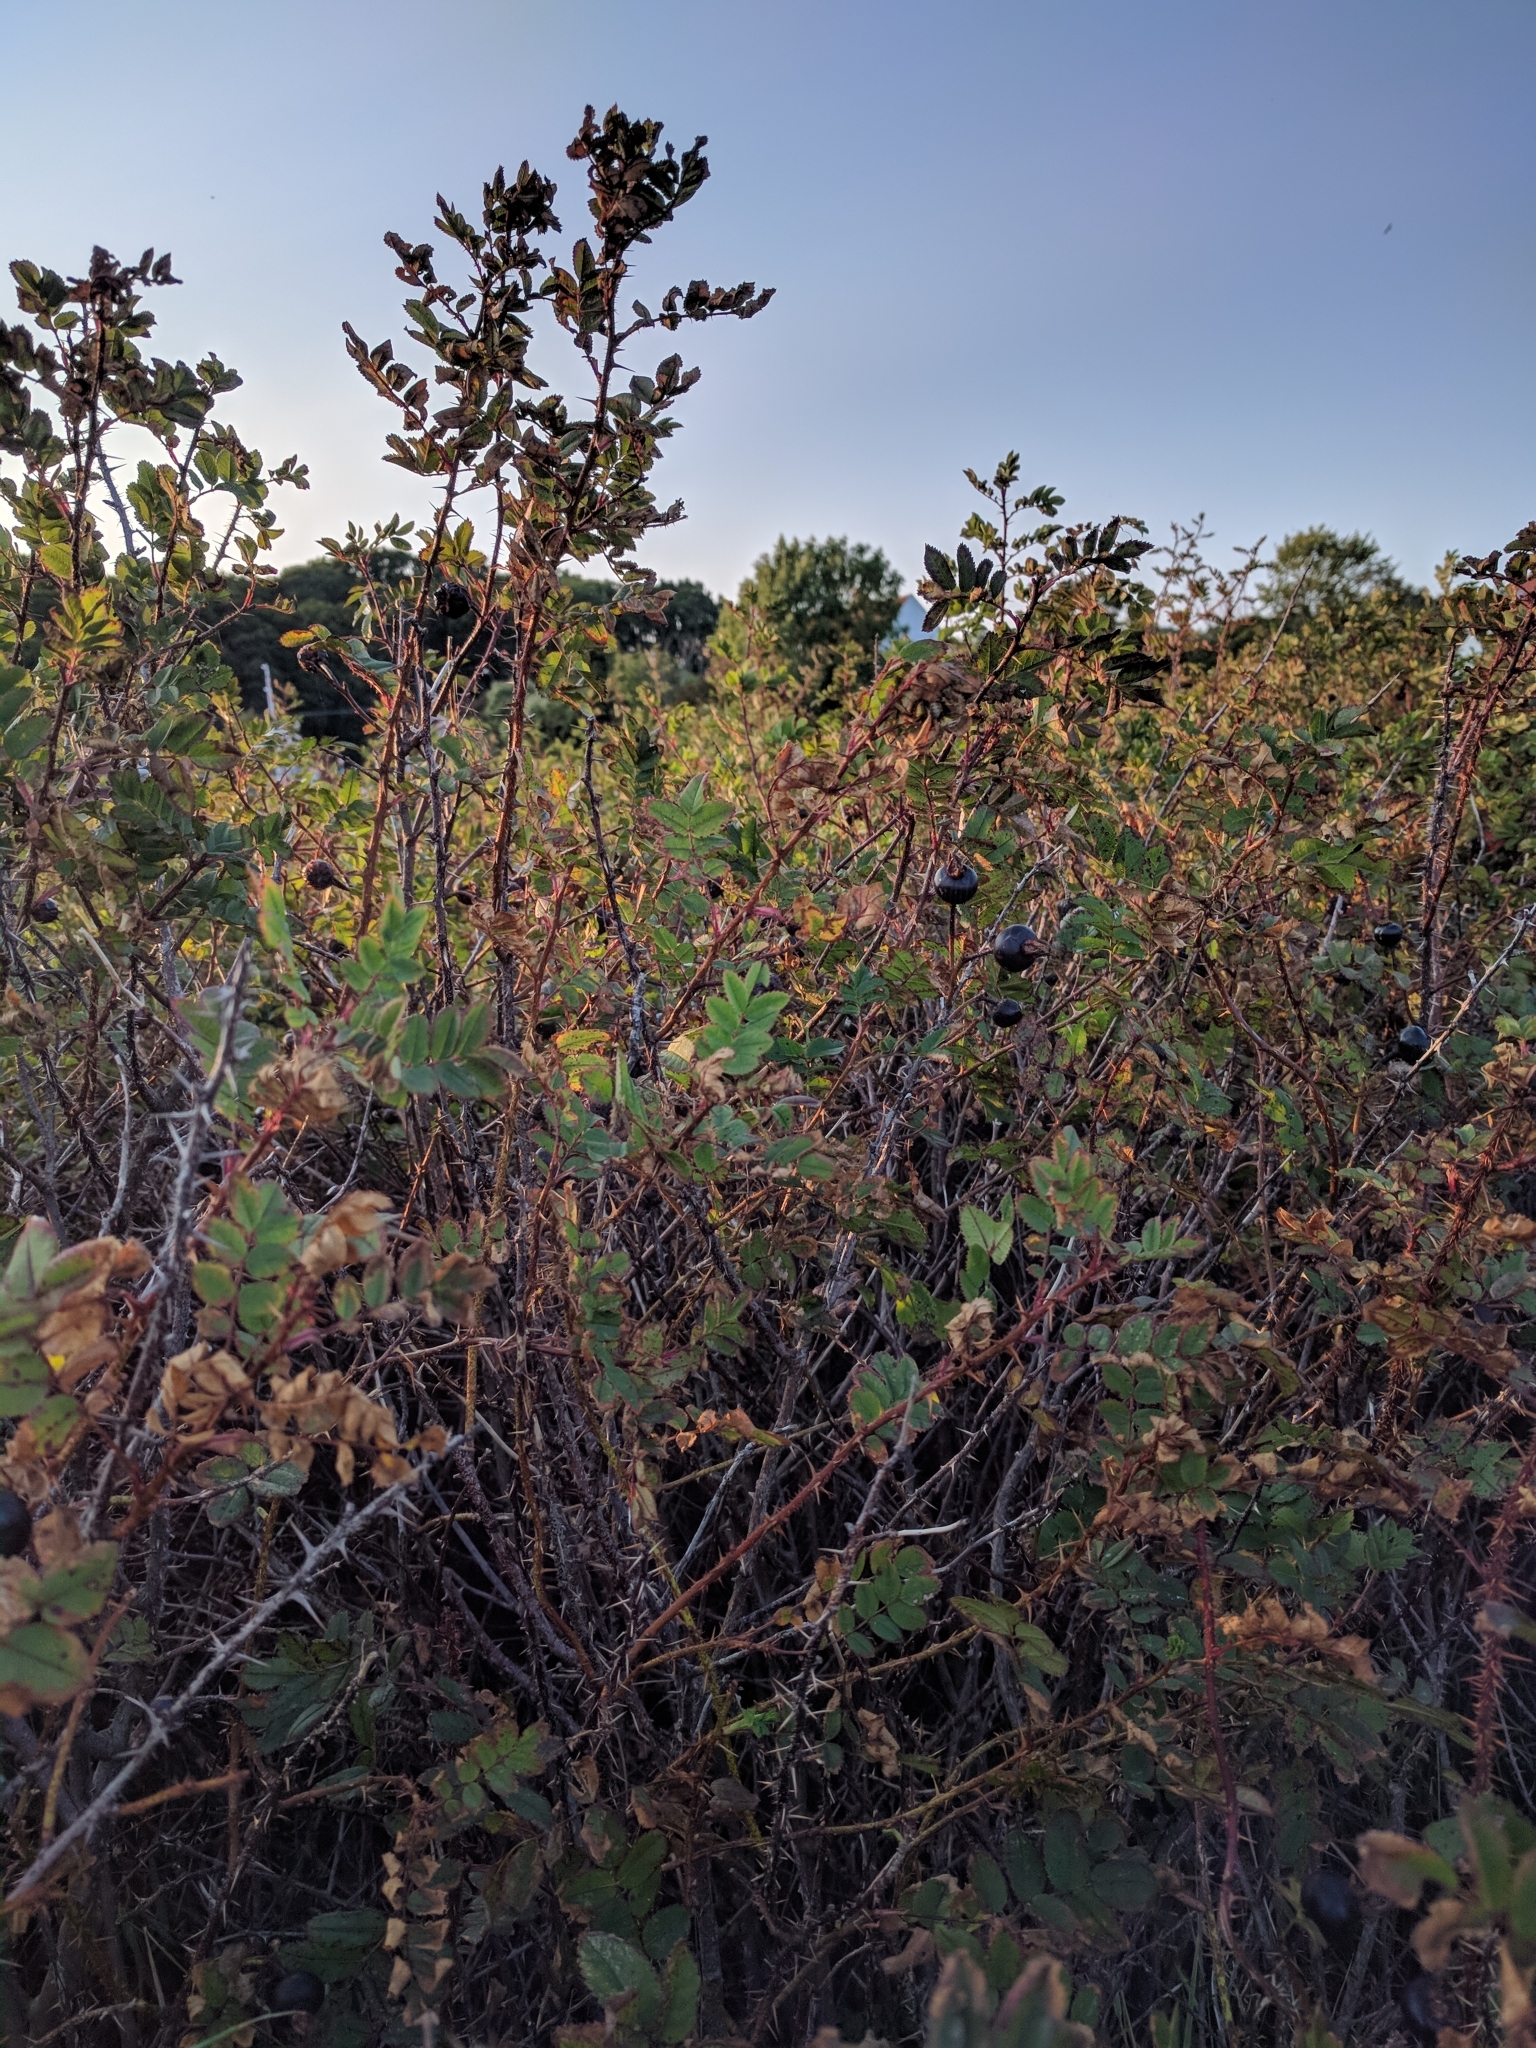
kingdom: Plantae
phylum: Tracheophyta
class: Magnoliopsida
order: Rosales
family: Rosaceae
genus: Rosa
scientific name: Rosa spinosissima
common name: Burnet rose
